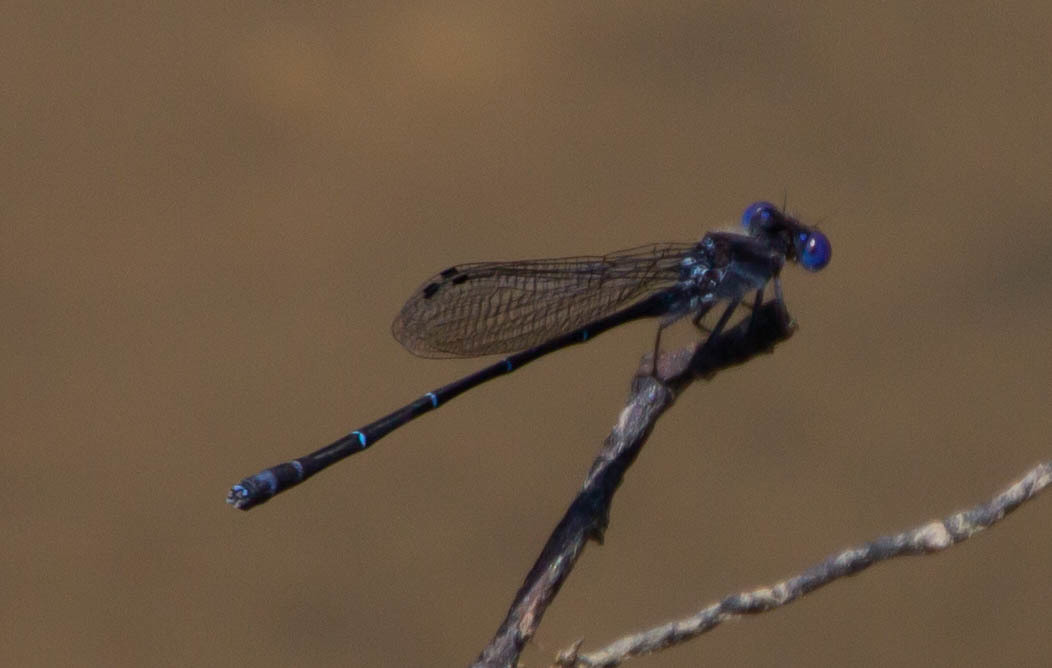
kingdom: Animalia
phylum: Arthropoda
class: Insecta
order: Odonata
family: Coenagrionidae
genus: Argia
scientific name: Argia translata
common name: Dusky dancer
